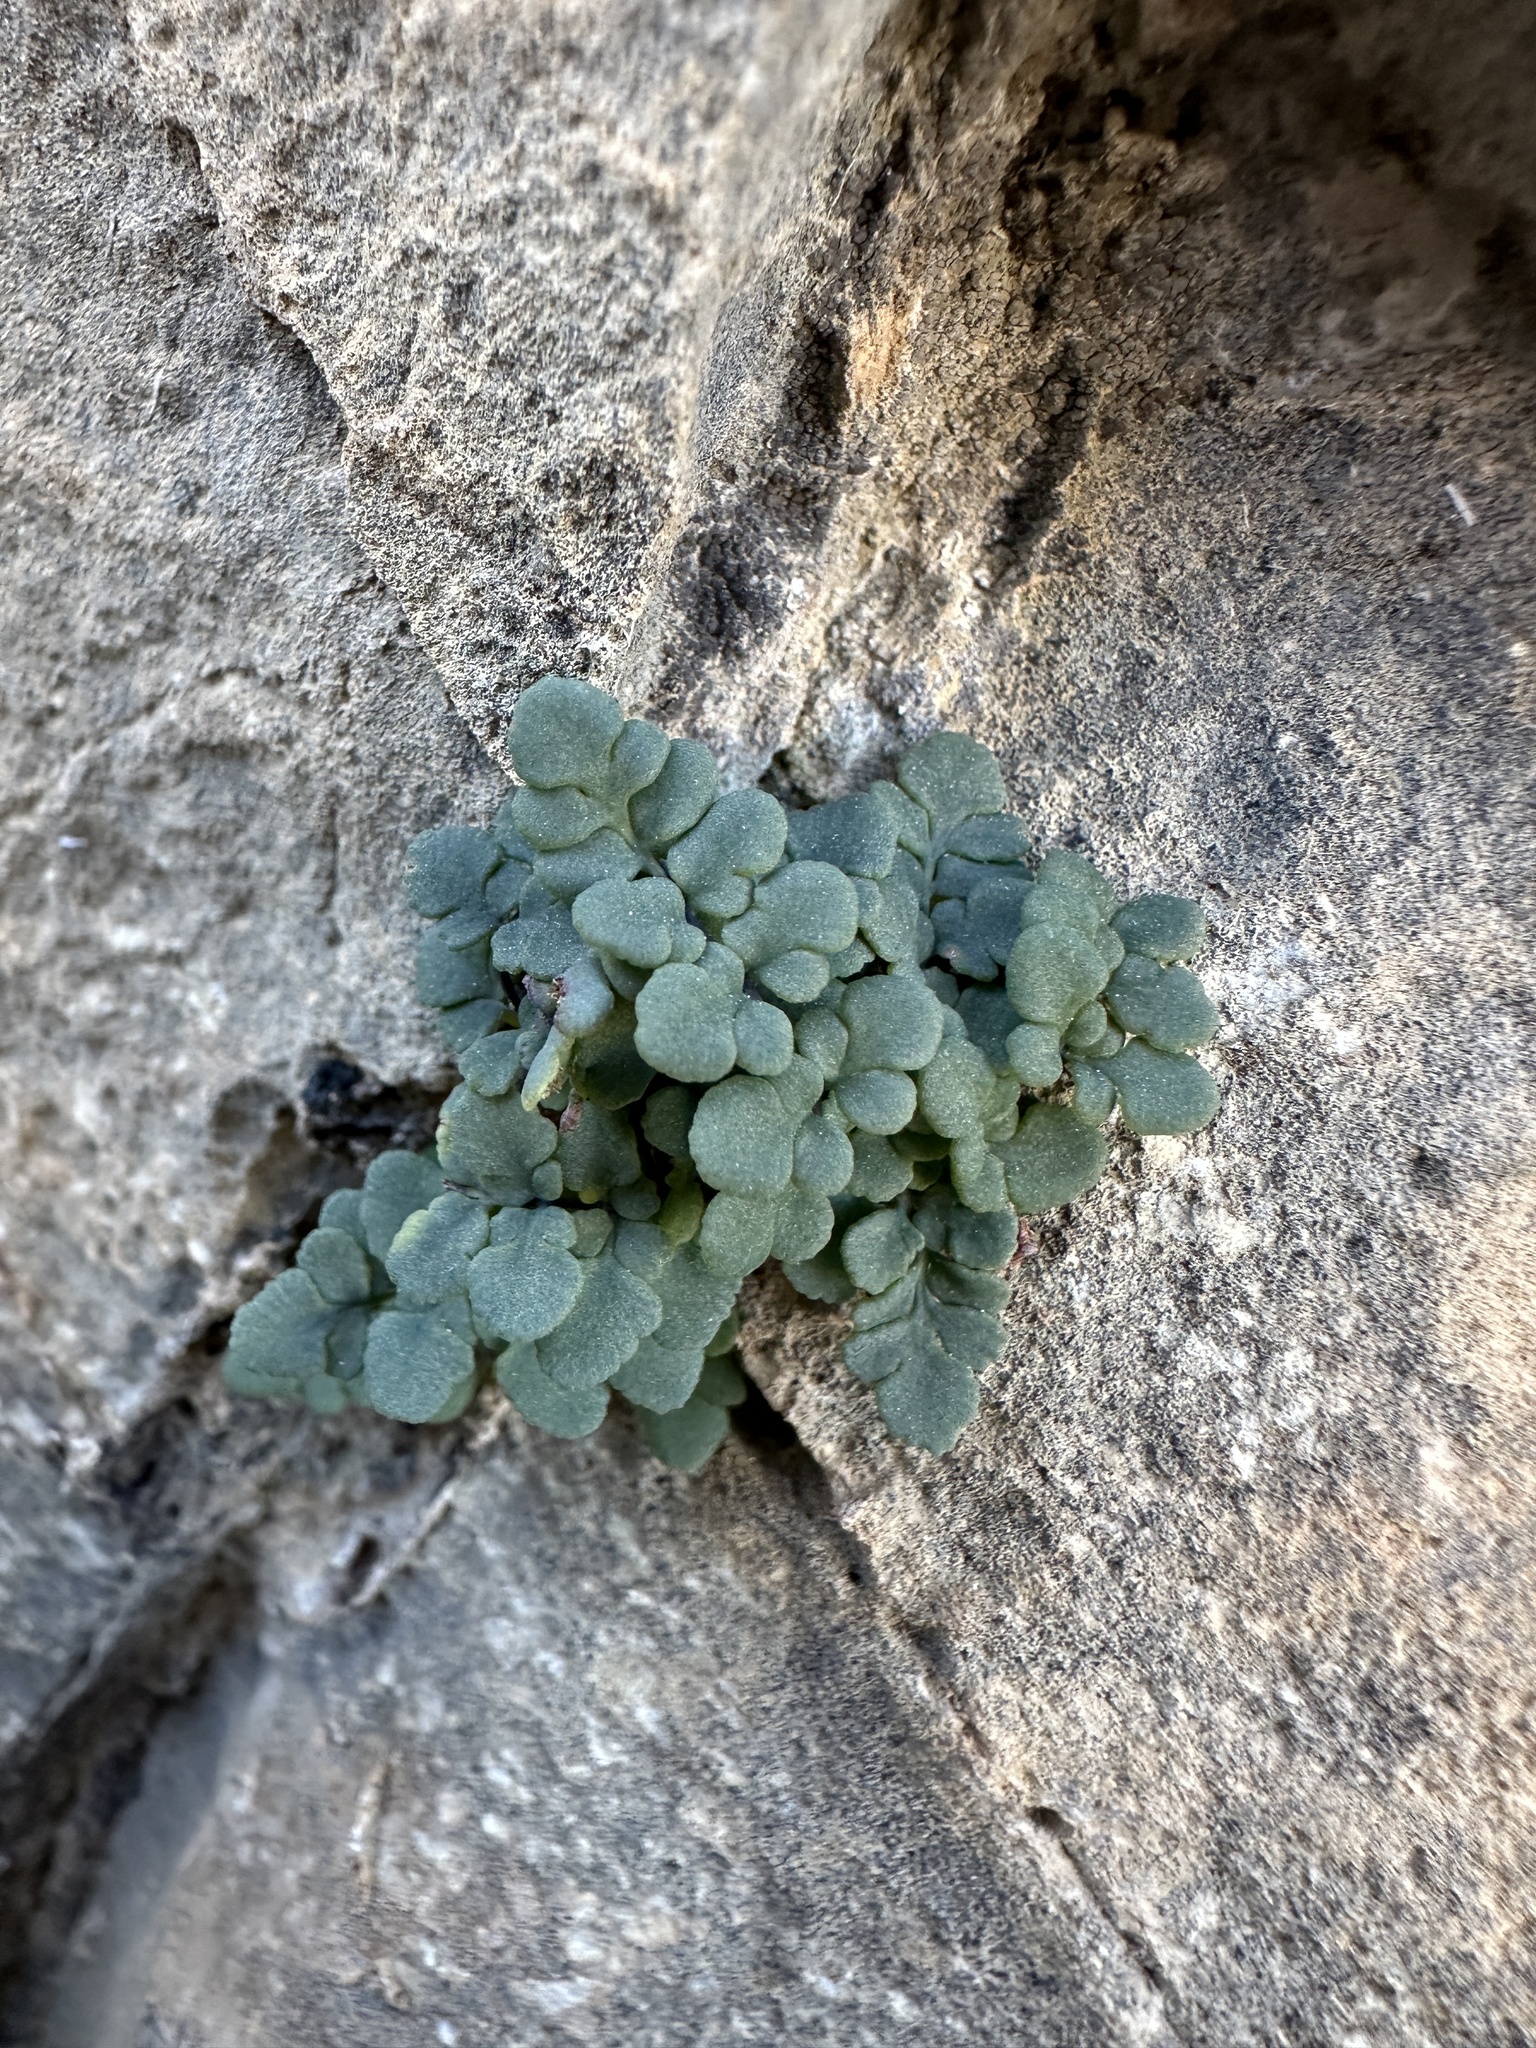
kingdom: Plantae
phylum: Tracheophyta
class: Polypodiopsida
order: Polypodiales
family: Pteridaceae
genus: Argyrochosma
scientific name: Argyrochosma jonesii
